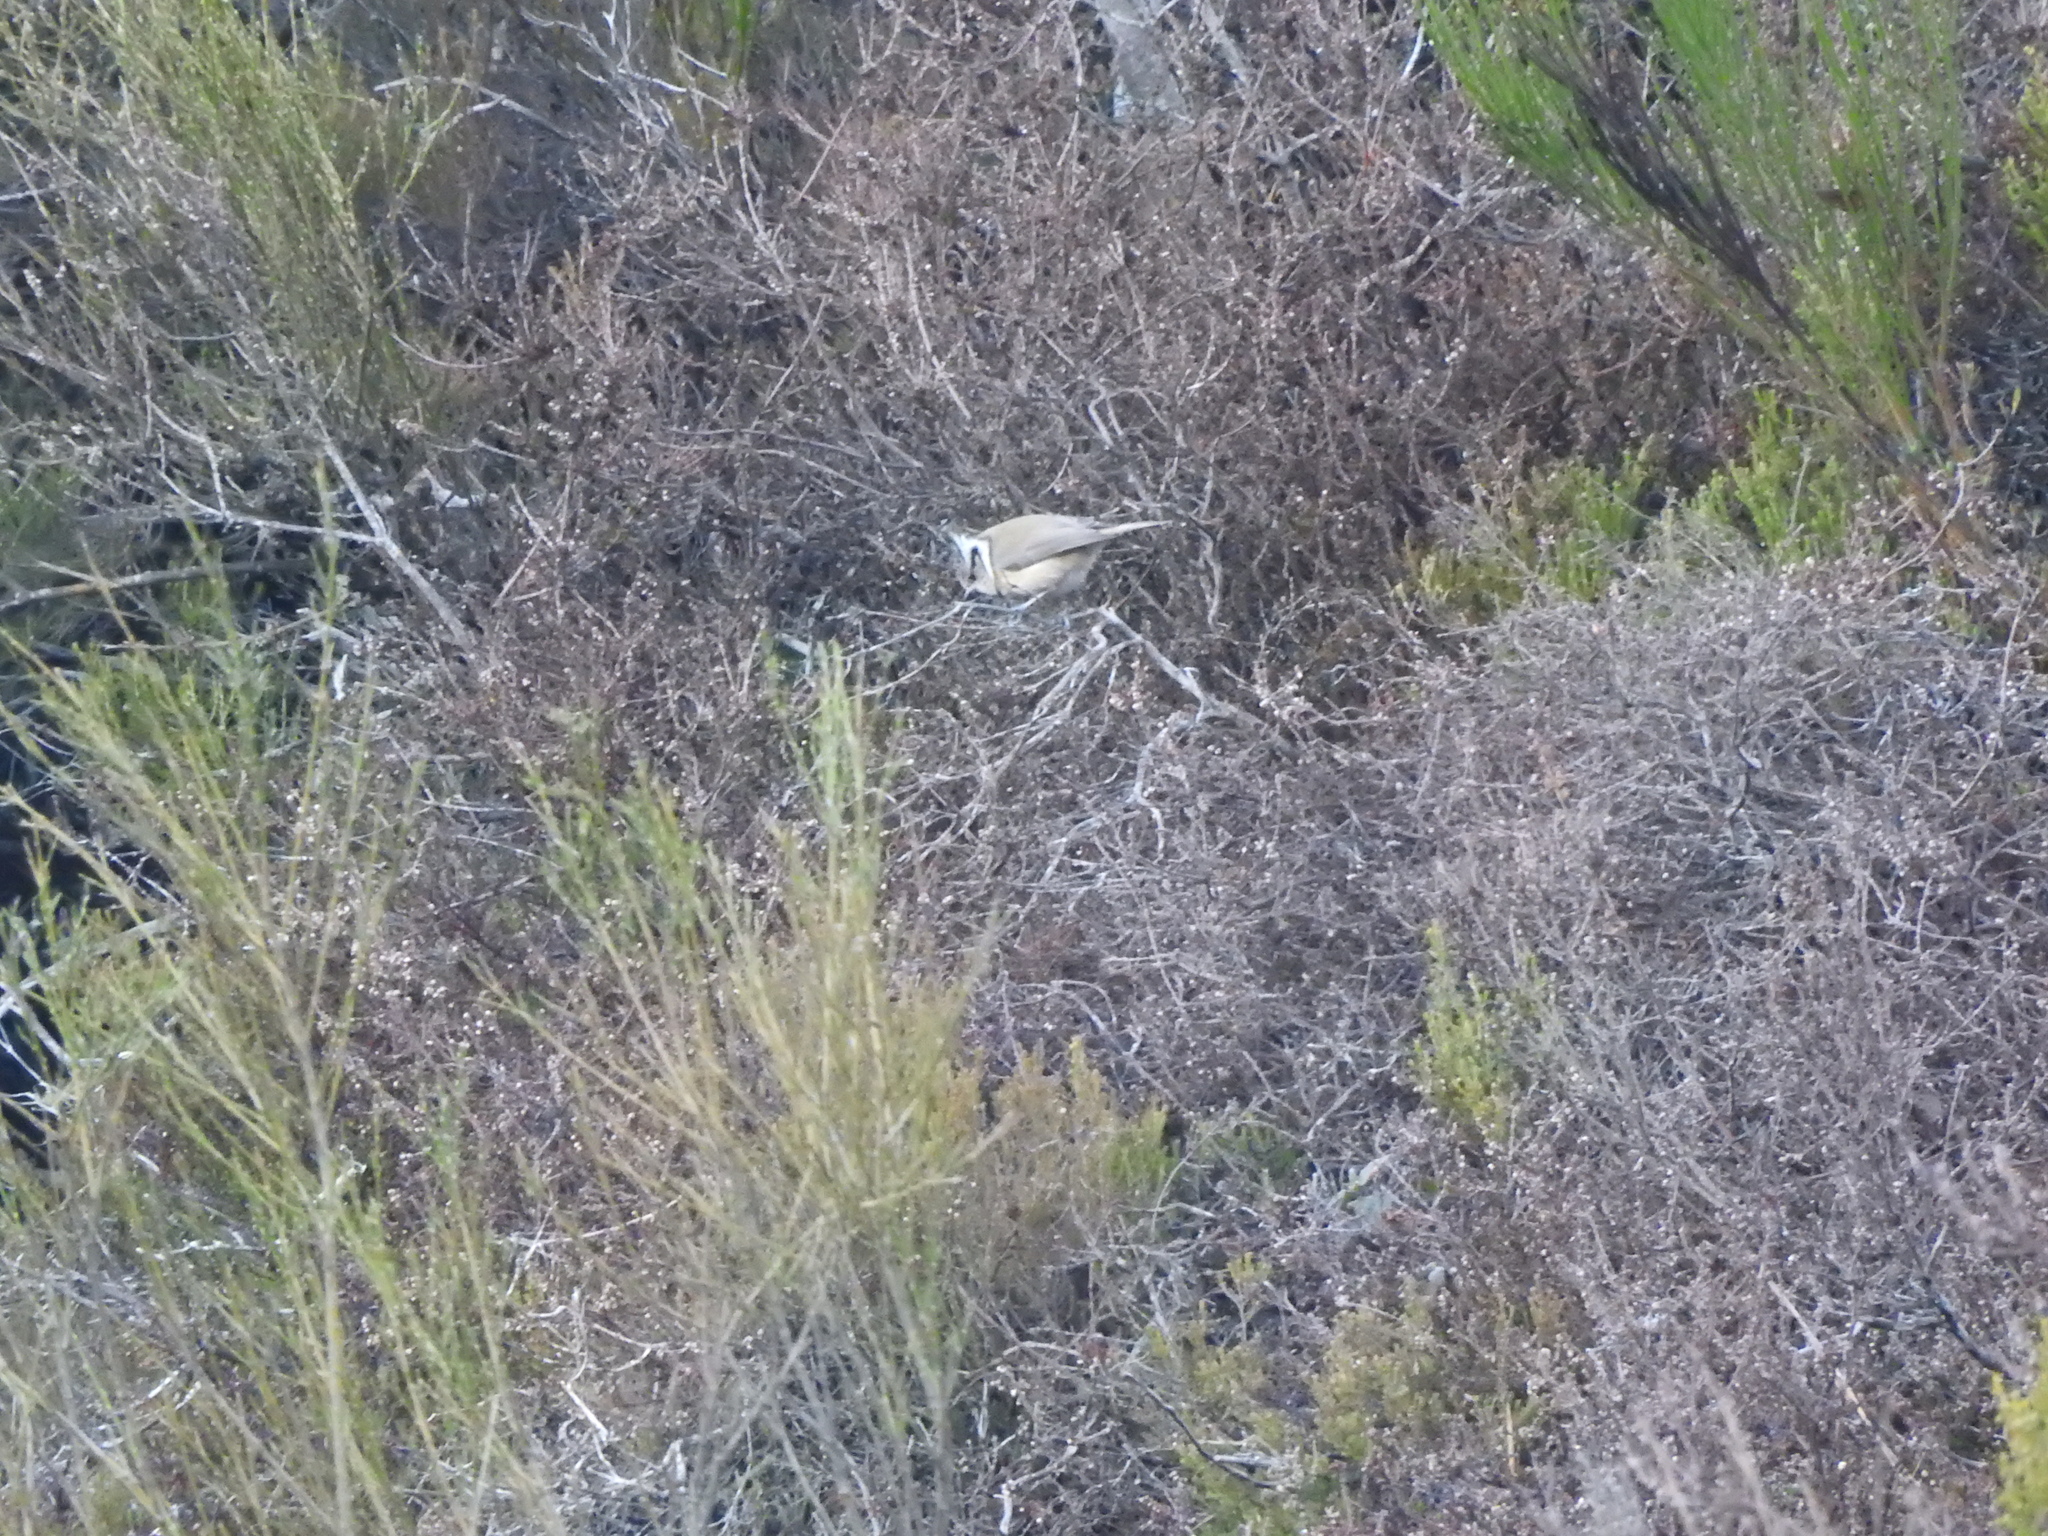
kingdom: Animalia
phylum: Chordata
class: Aves
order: Passeriformes
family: Paridae
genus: Lophophanes
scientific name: Lophophanes cristatus
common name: European crested tit
